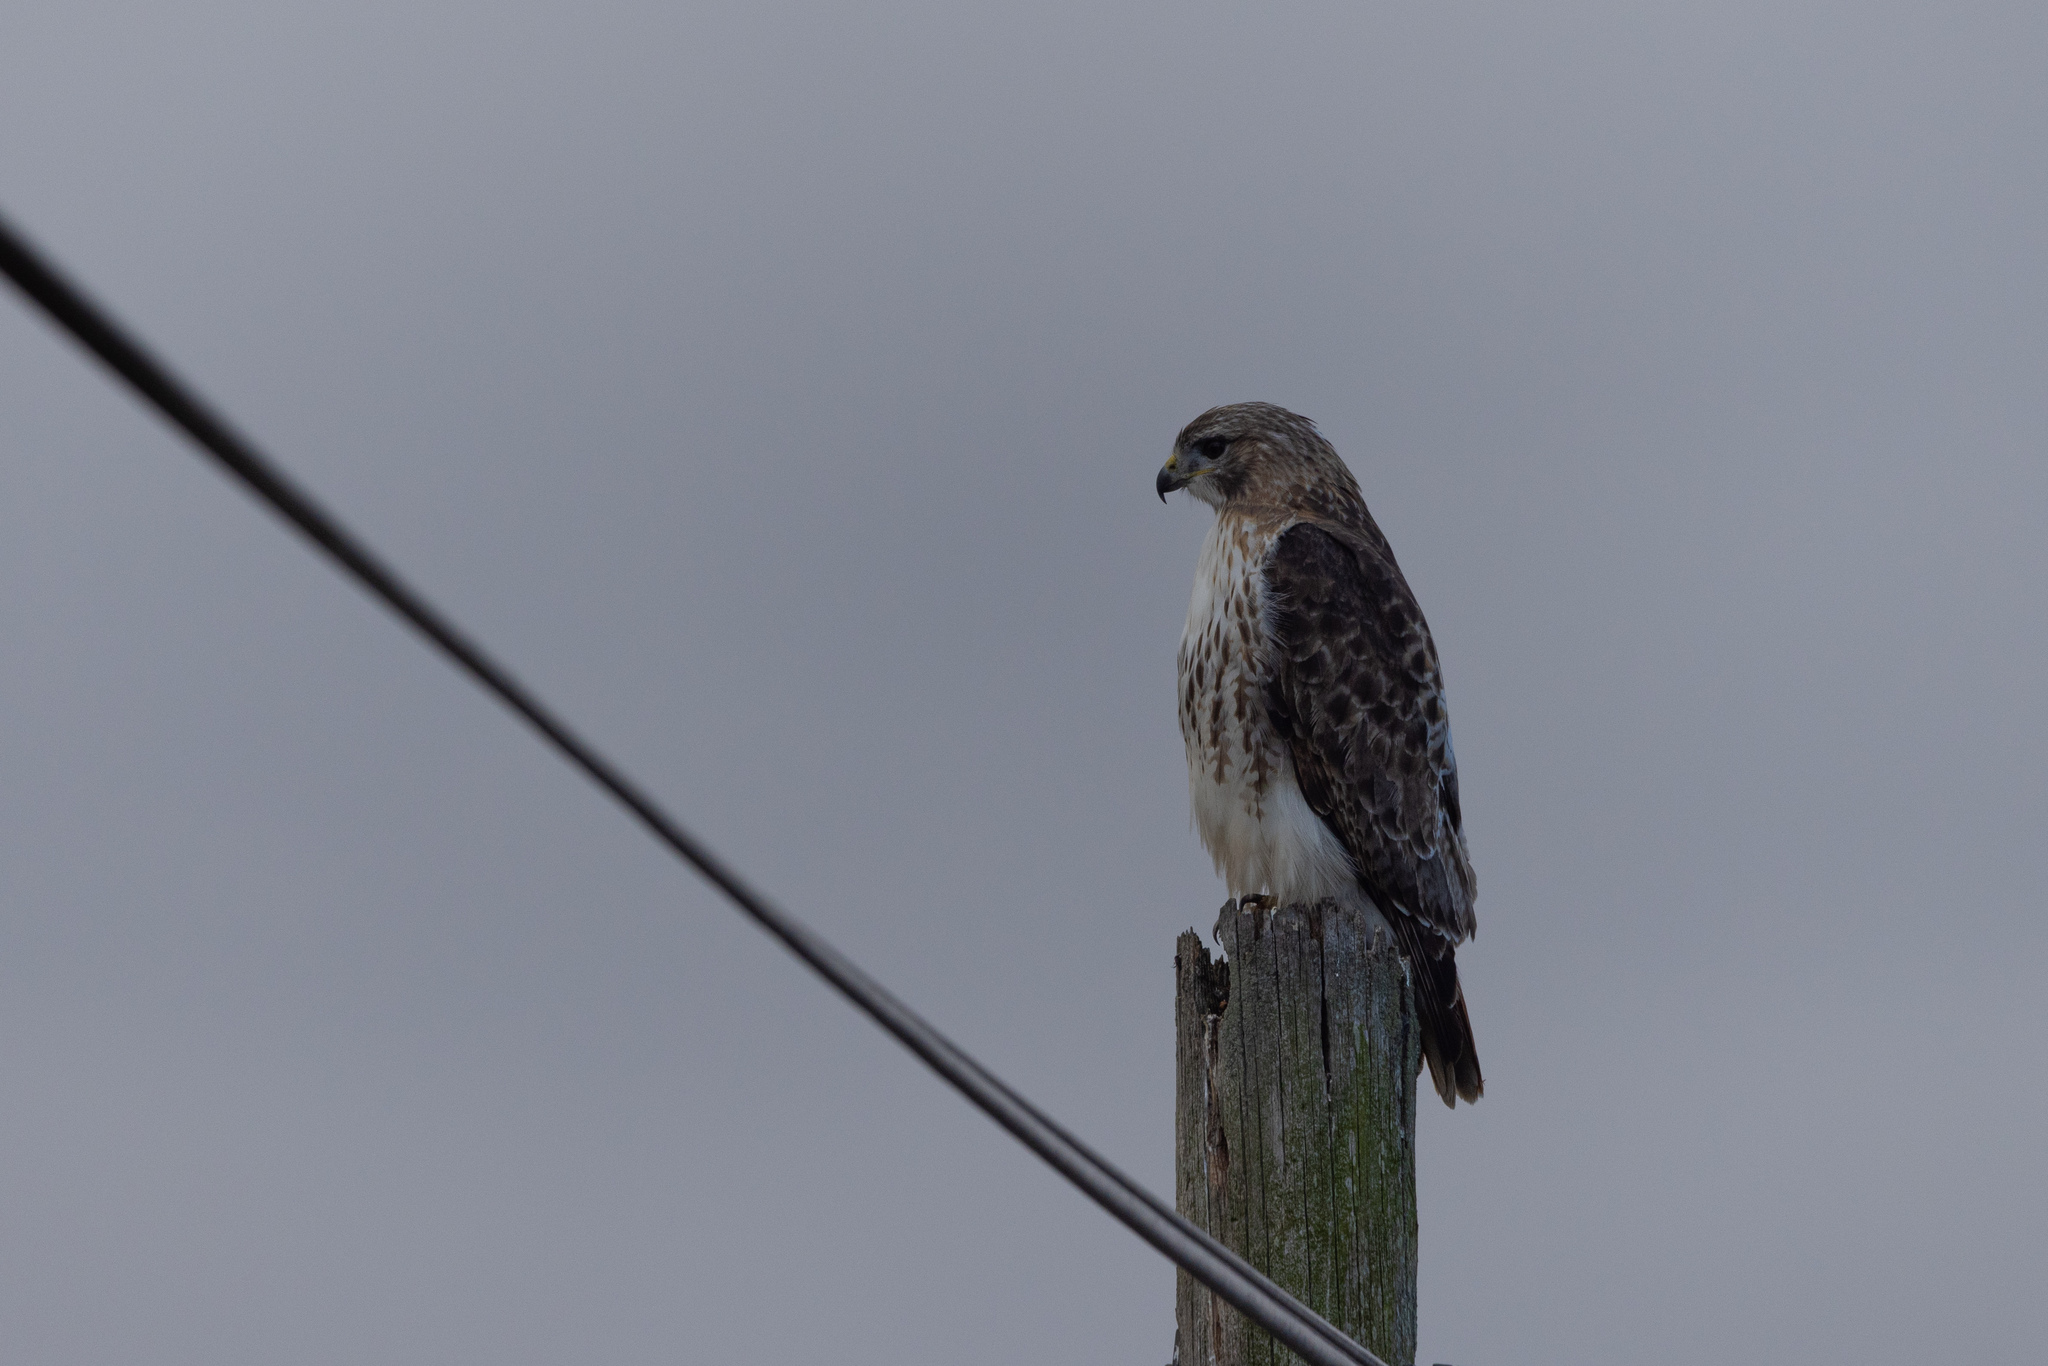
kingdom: Animalia
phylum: Chordata
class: Aves
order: Accipitriformes
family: Accipitridae
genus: Buteo
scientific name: Buteo jamaicensis
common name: Red-tailed hawk
